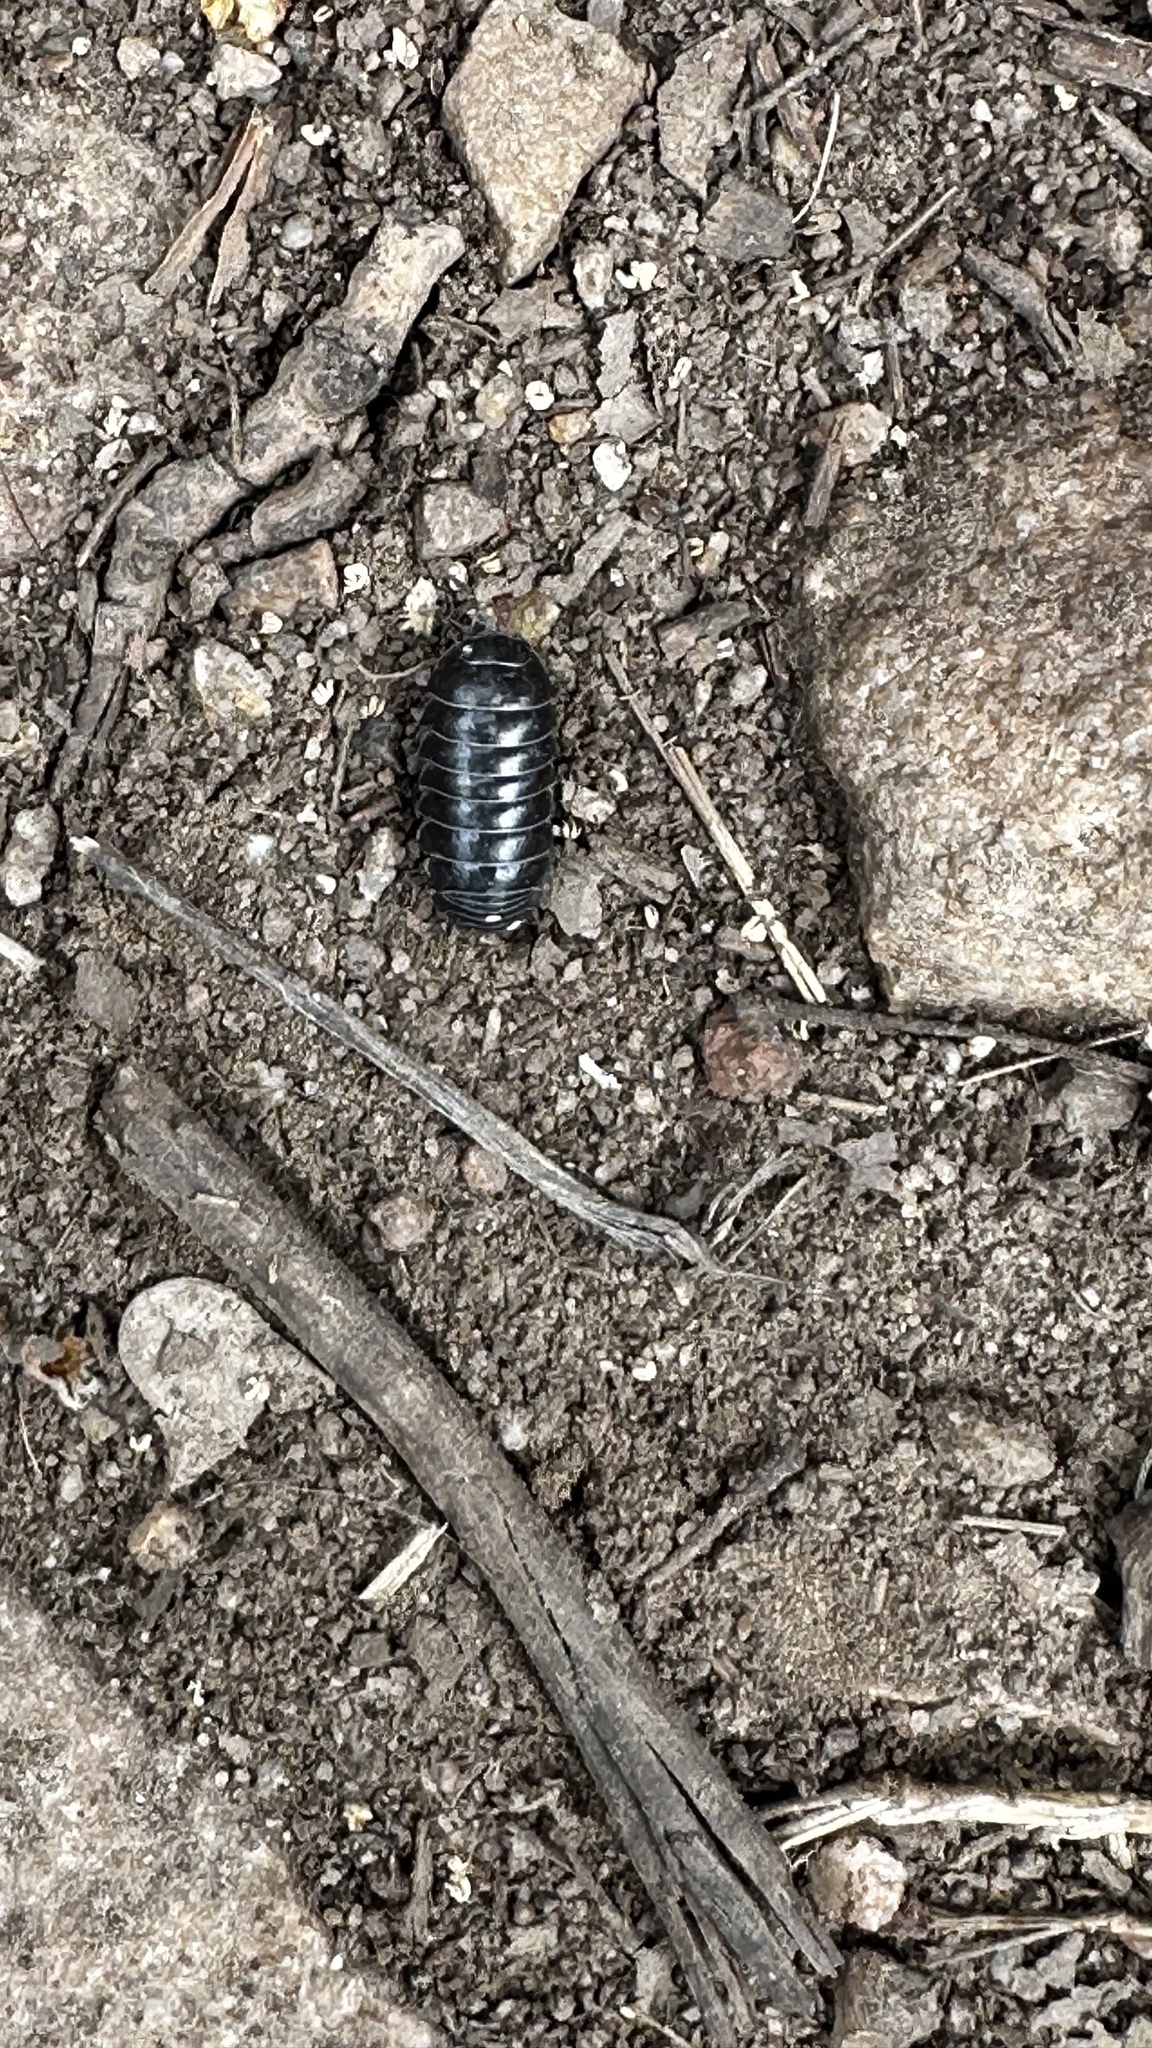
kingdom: Animalia
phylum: Arthropoda
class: Malacostraca
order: Isopoda
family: Armadillidiidae
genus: Armadillidium
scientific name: Armadillidium vulgare
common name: Common pill woodlouse
